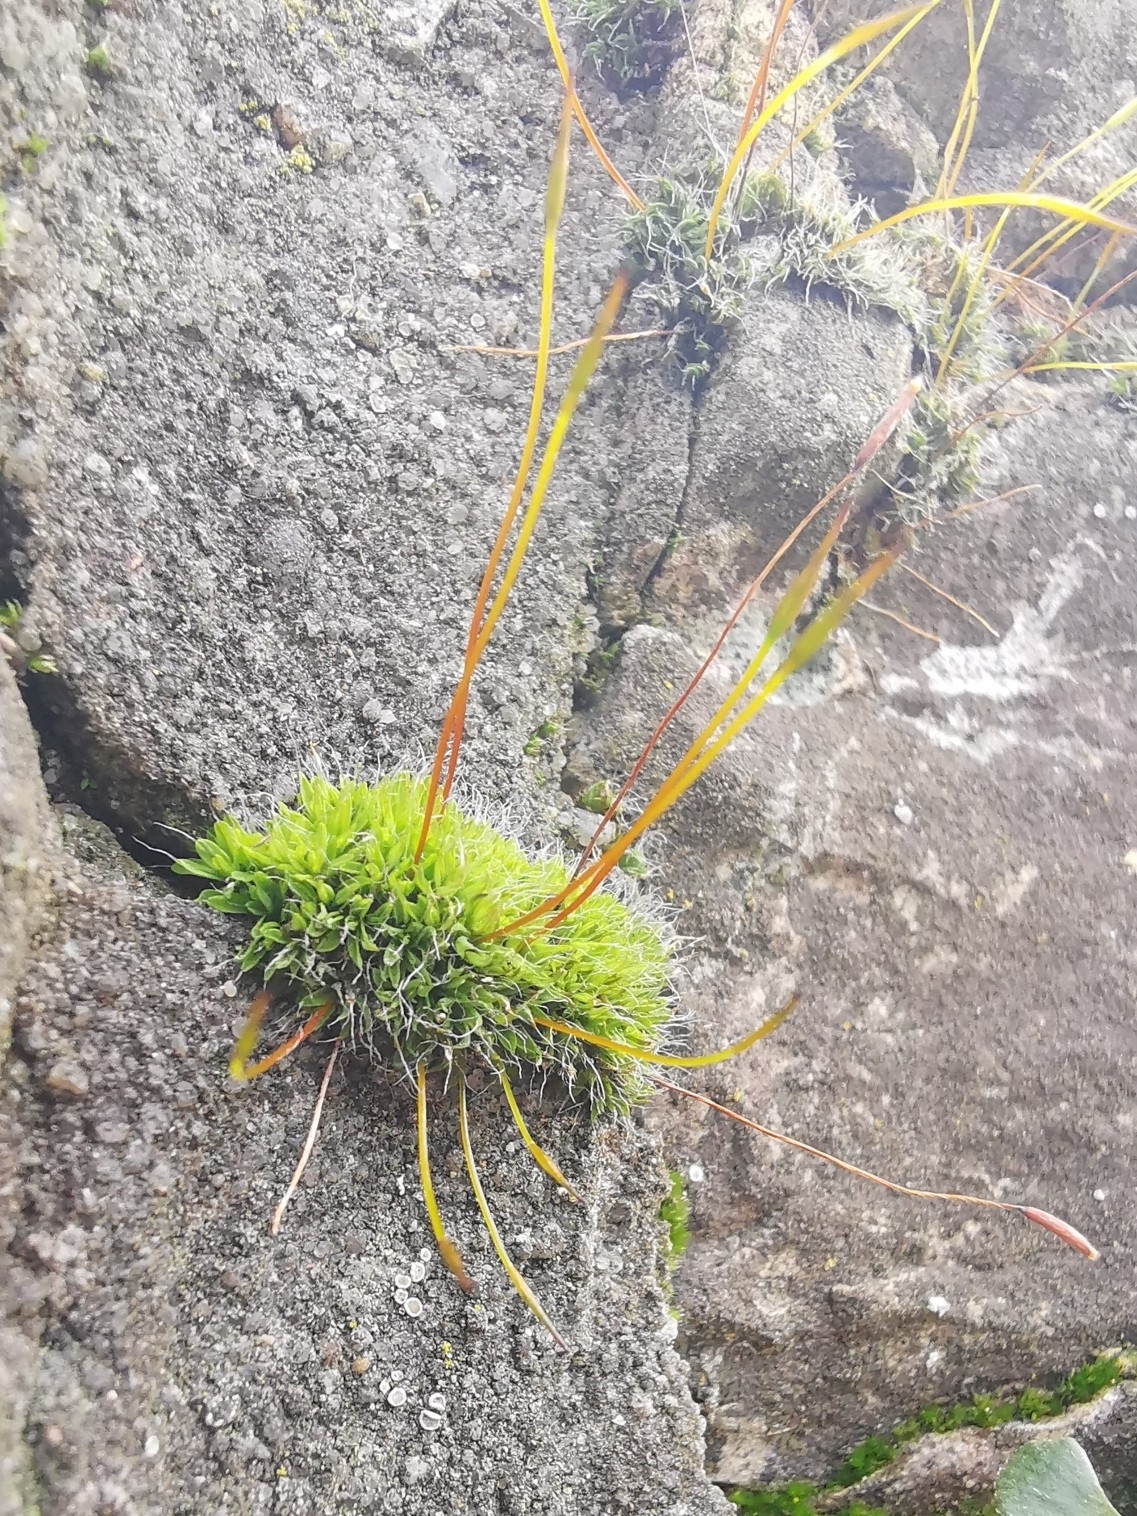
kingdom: Plantae
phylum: Bryophyta
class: Bryopsida
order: Pottiales
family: Pottiaceae
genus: Tortula
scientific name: Tortula muralis
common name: Wall screw-moss
